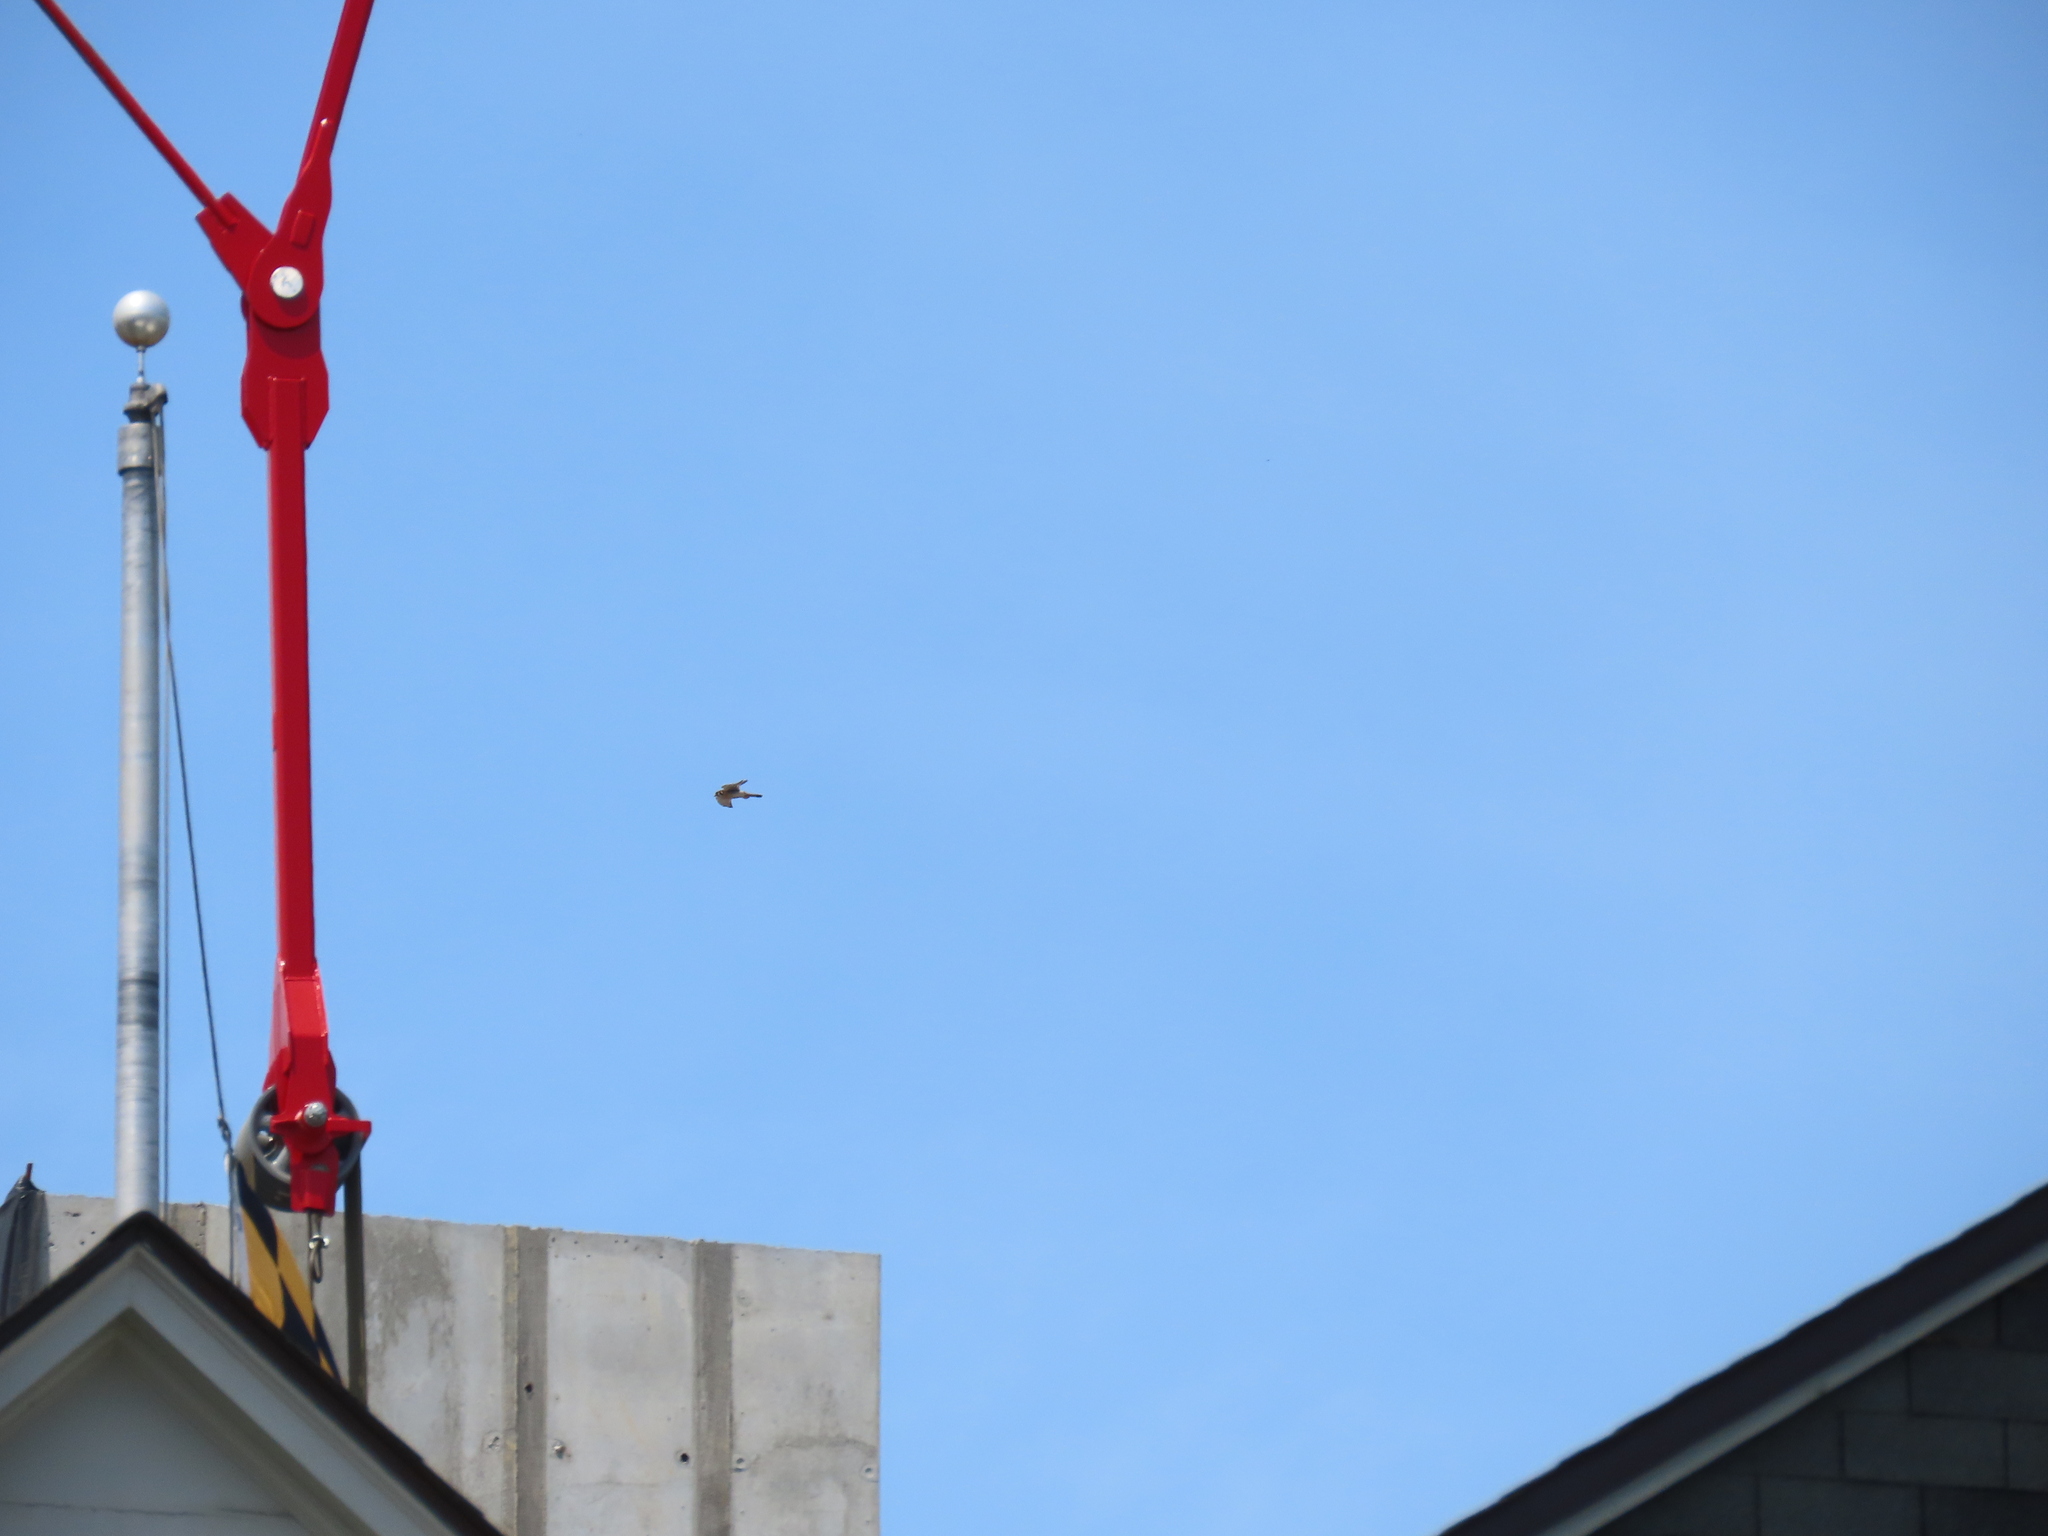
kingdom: Animalia
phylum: Chordata
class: Aves
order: Falconiformes
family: Falconidae
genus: Falco
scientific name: Falco sparverius
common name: American kestrel
